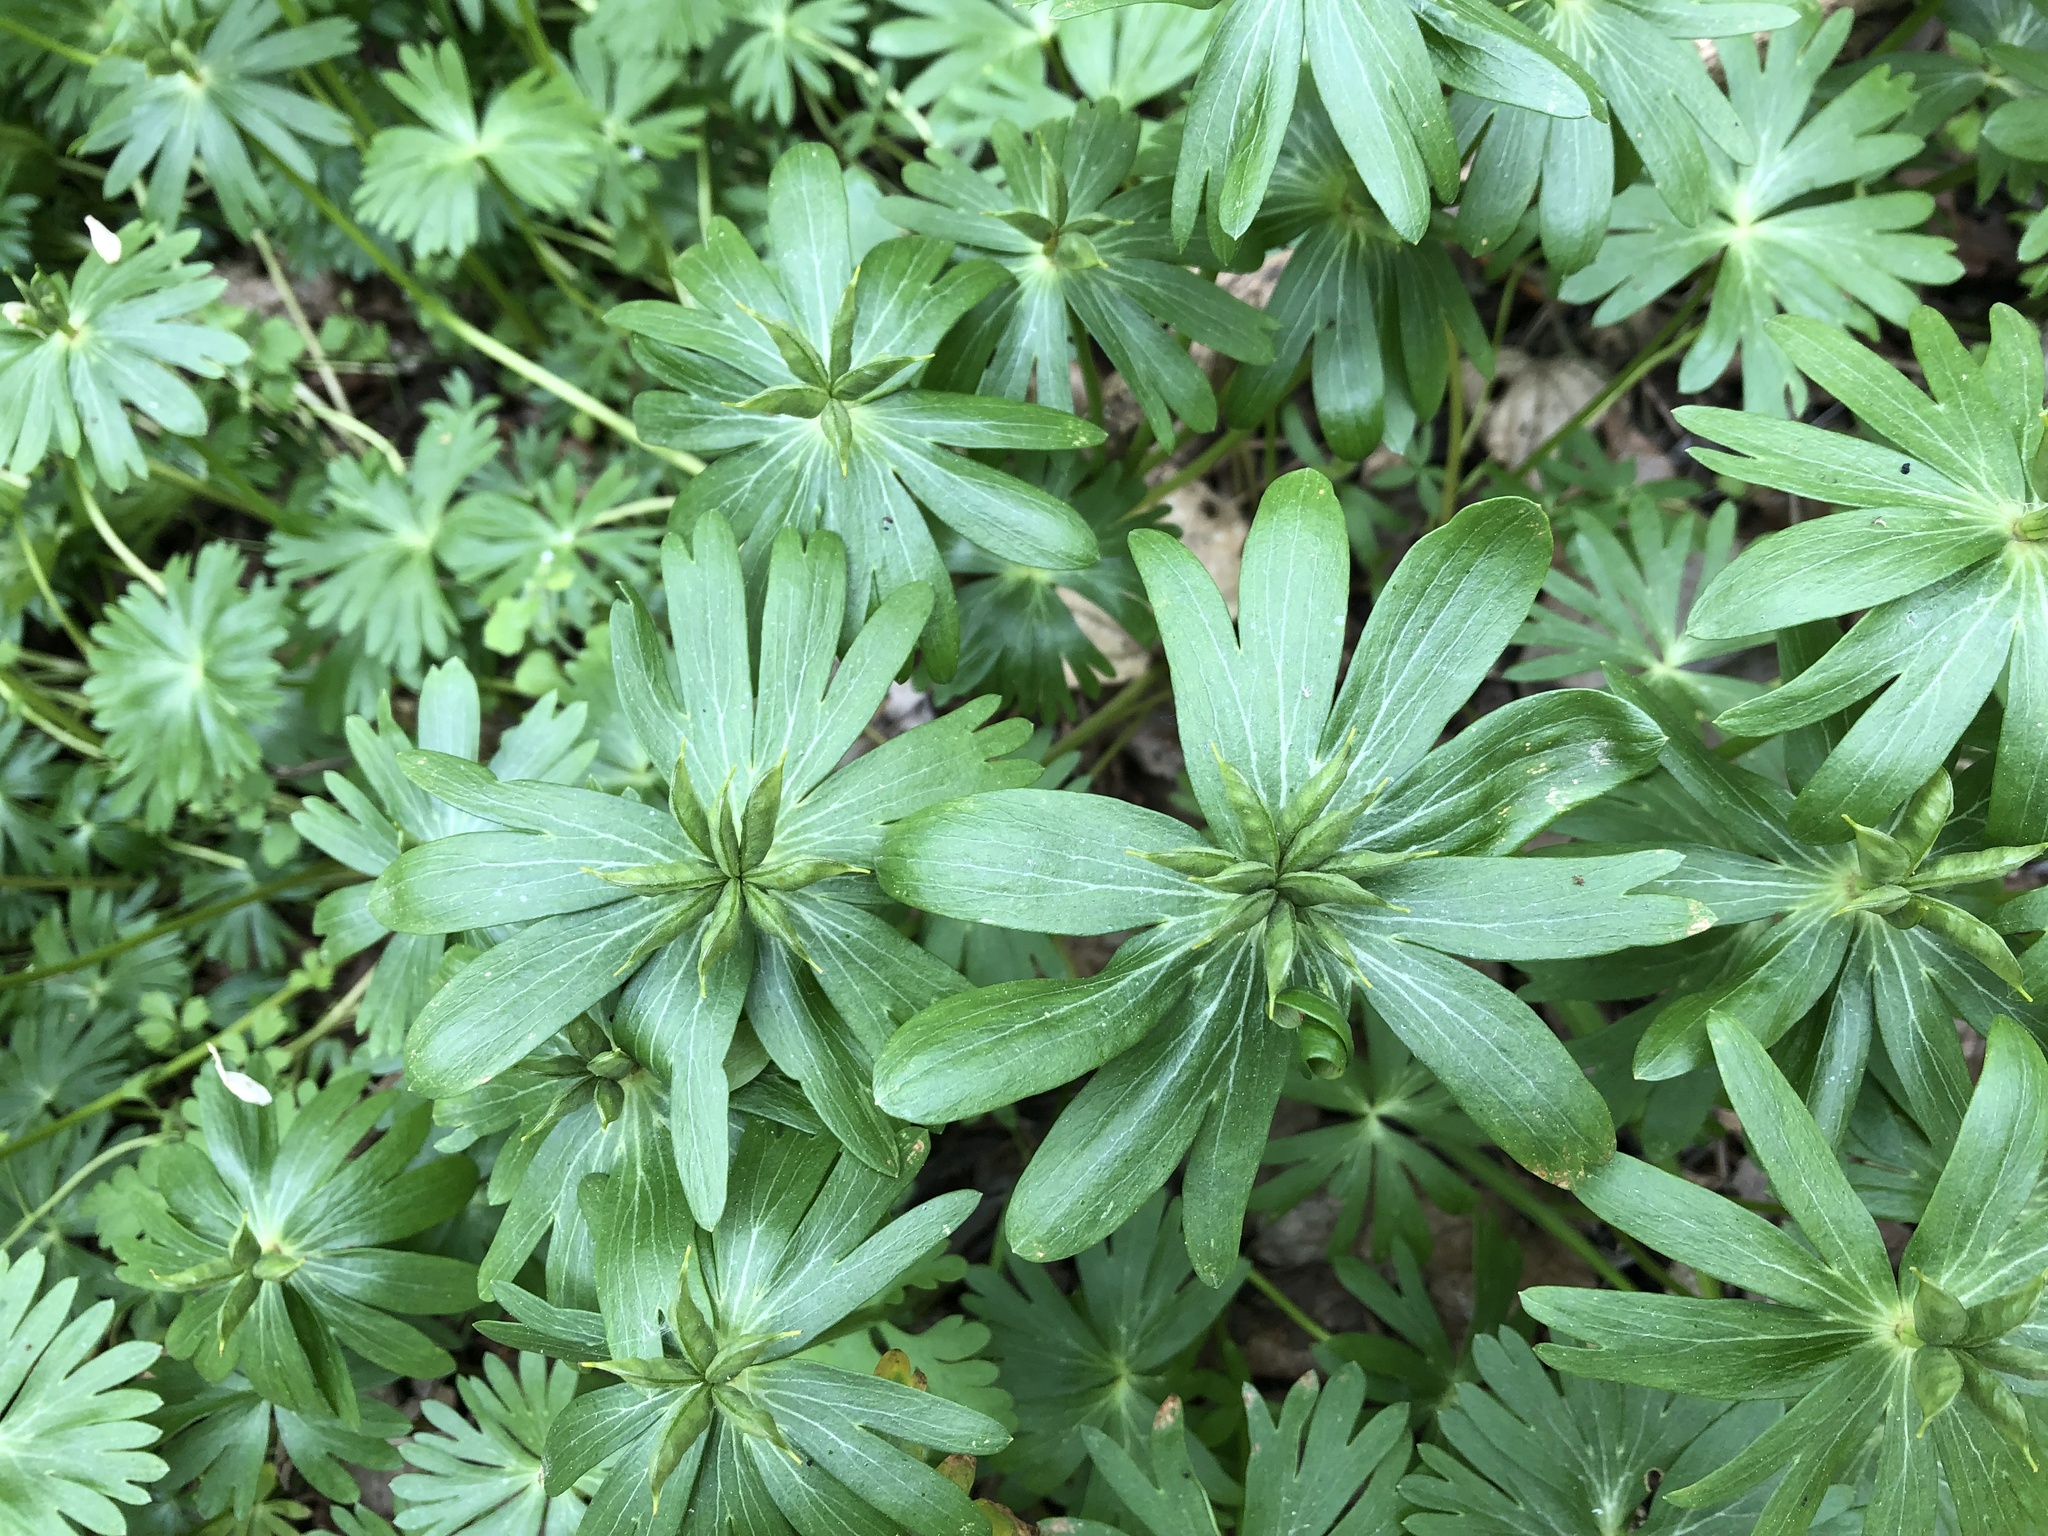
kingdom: Plantae
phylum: Tracheophyta
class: Magnoliopsida
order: Ranunculales
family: Ranunculaceae
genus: Eranthis
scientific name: Eranthis hyemalis
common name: Winter aconite
